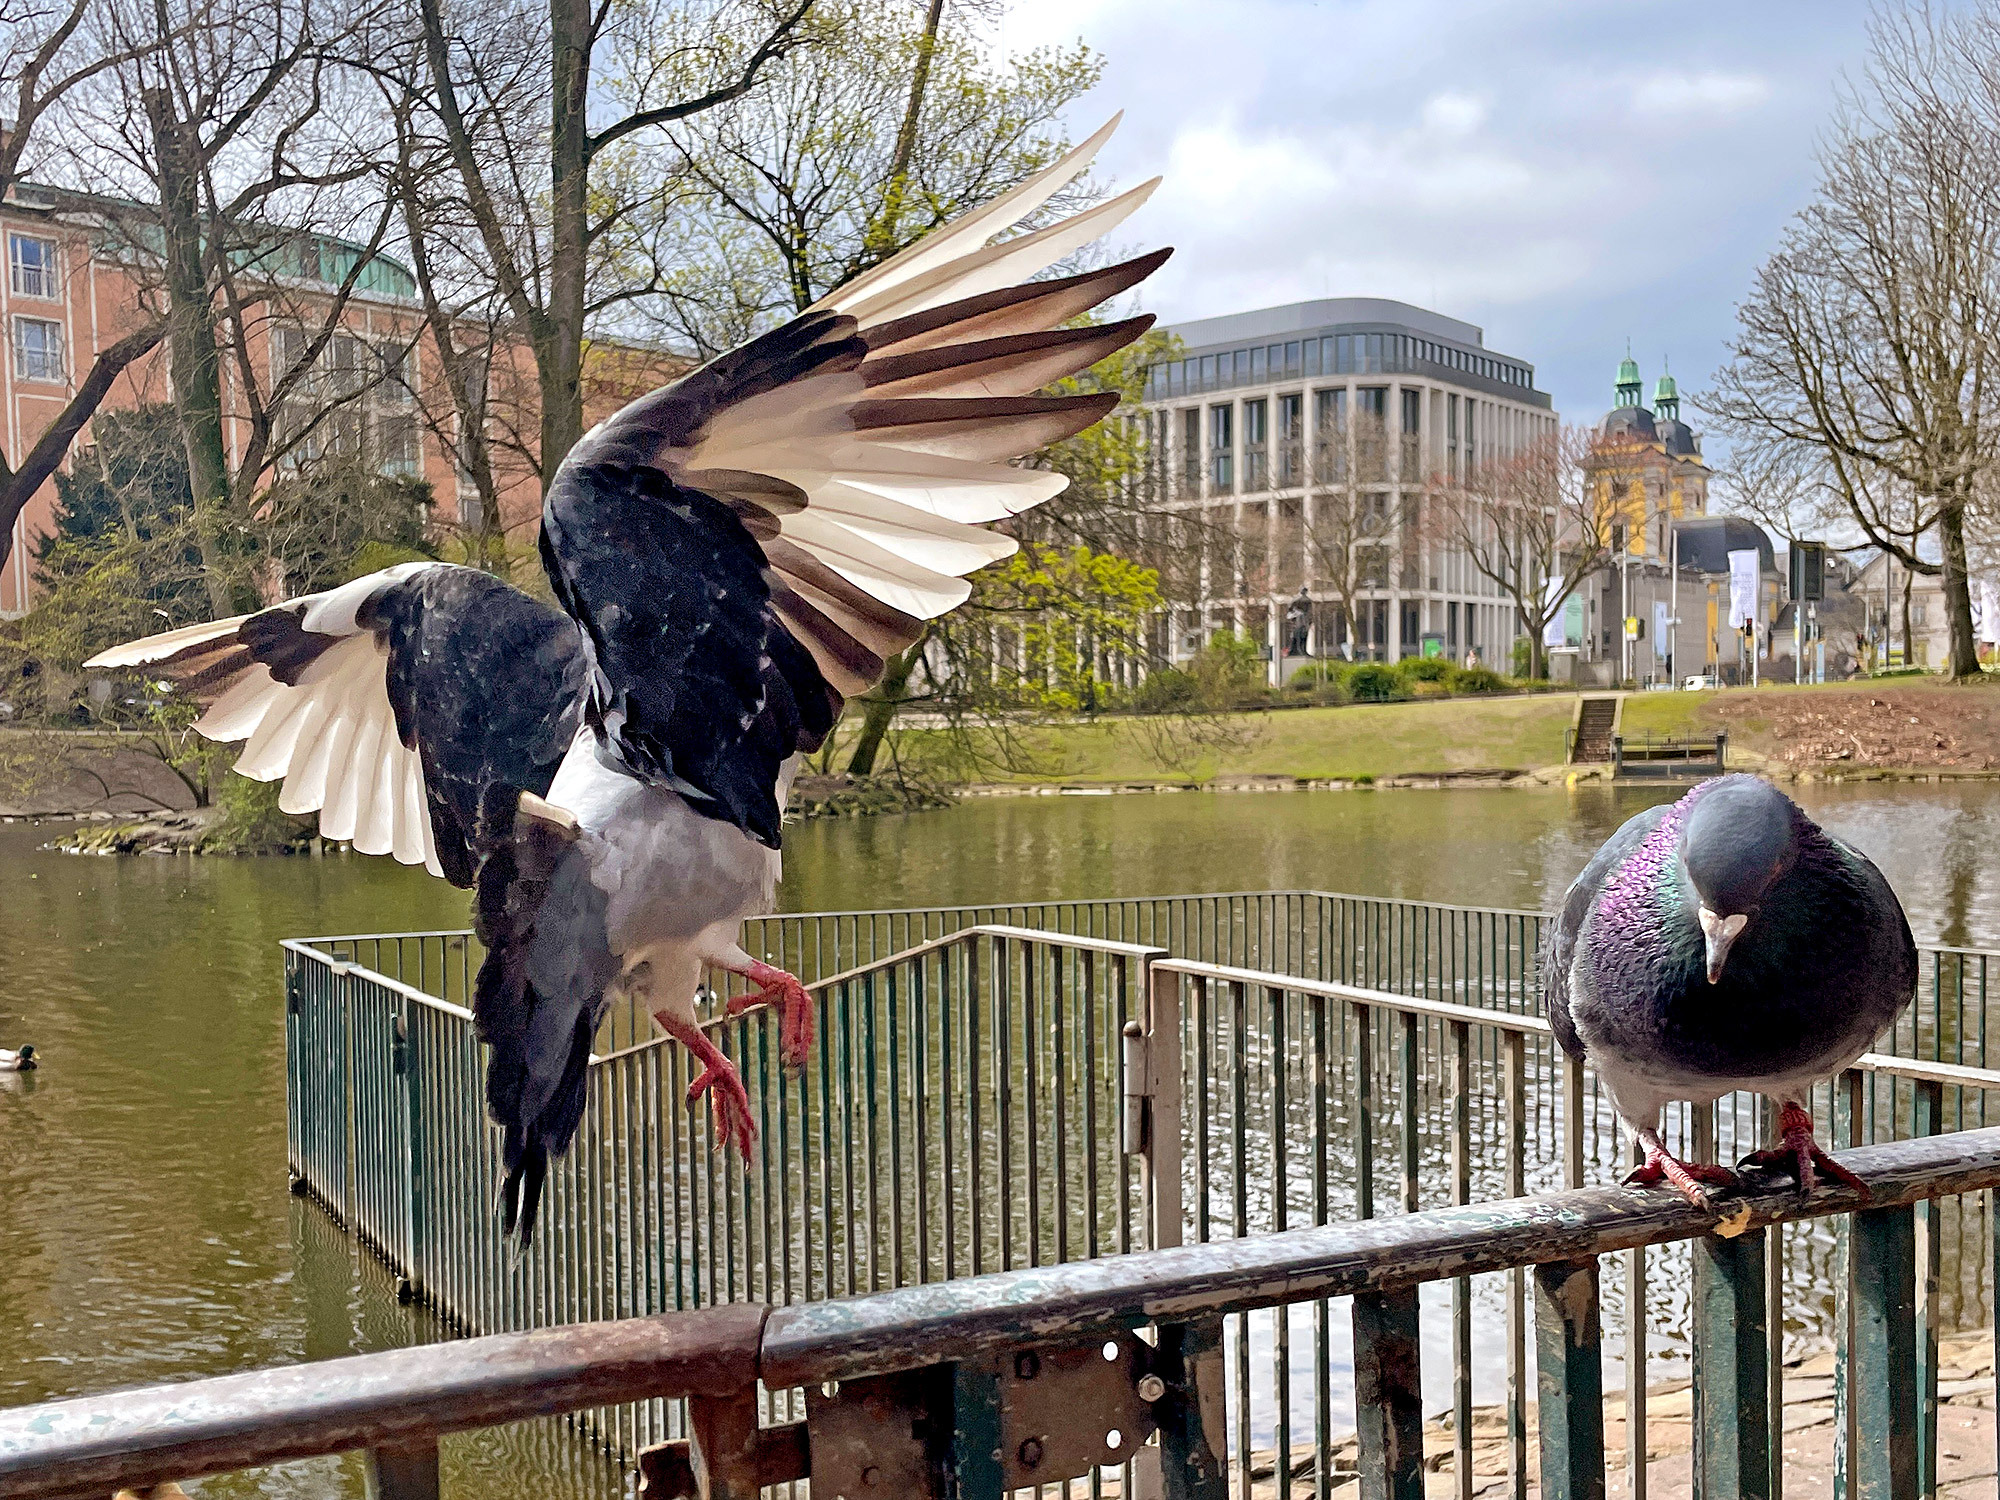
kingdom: Animalia
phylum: Chordata
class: Aves
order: Columbiformes
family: Columbidae
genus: Columba
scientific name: Columba livia
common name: Rock pigeon
